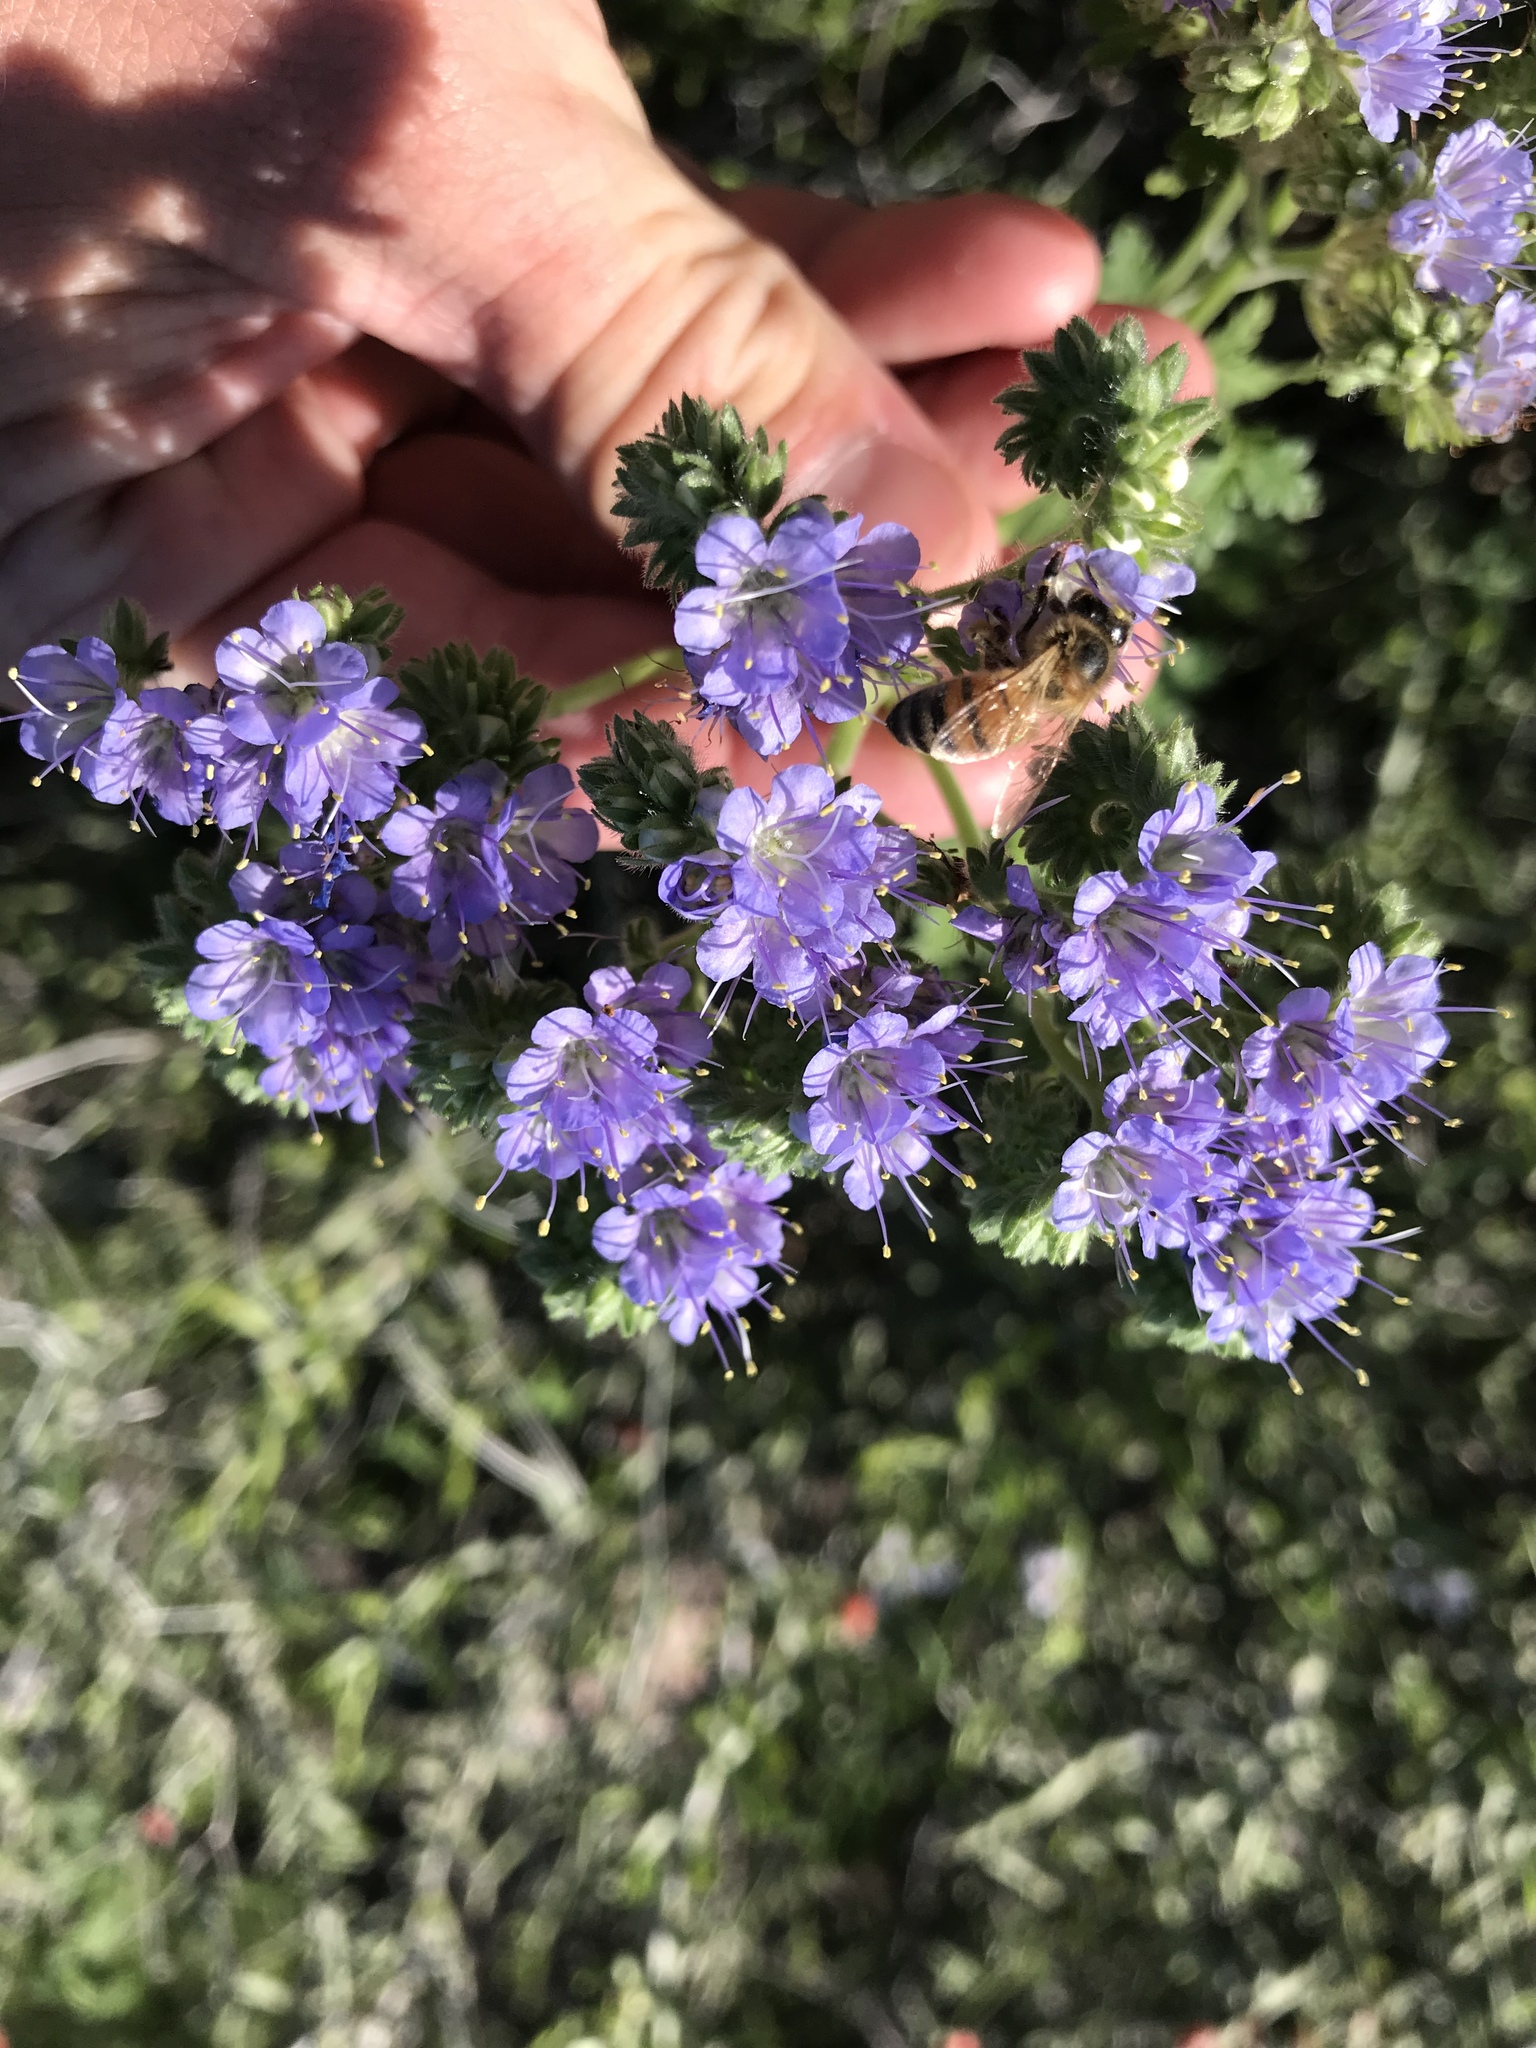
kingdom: Plantae
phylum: Tracheophyta
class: Magnoliopsida
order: Boraginales
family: Hydrophyllaceae
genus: Phacelia
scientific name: Phacelia congesta
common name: Blue curls
